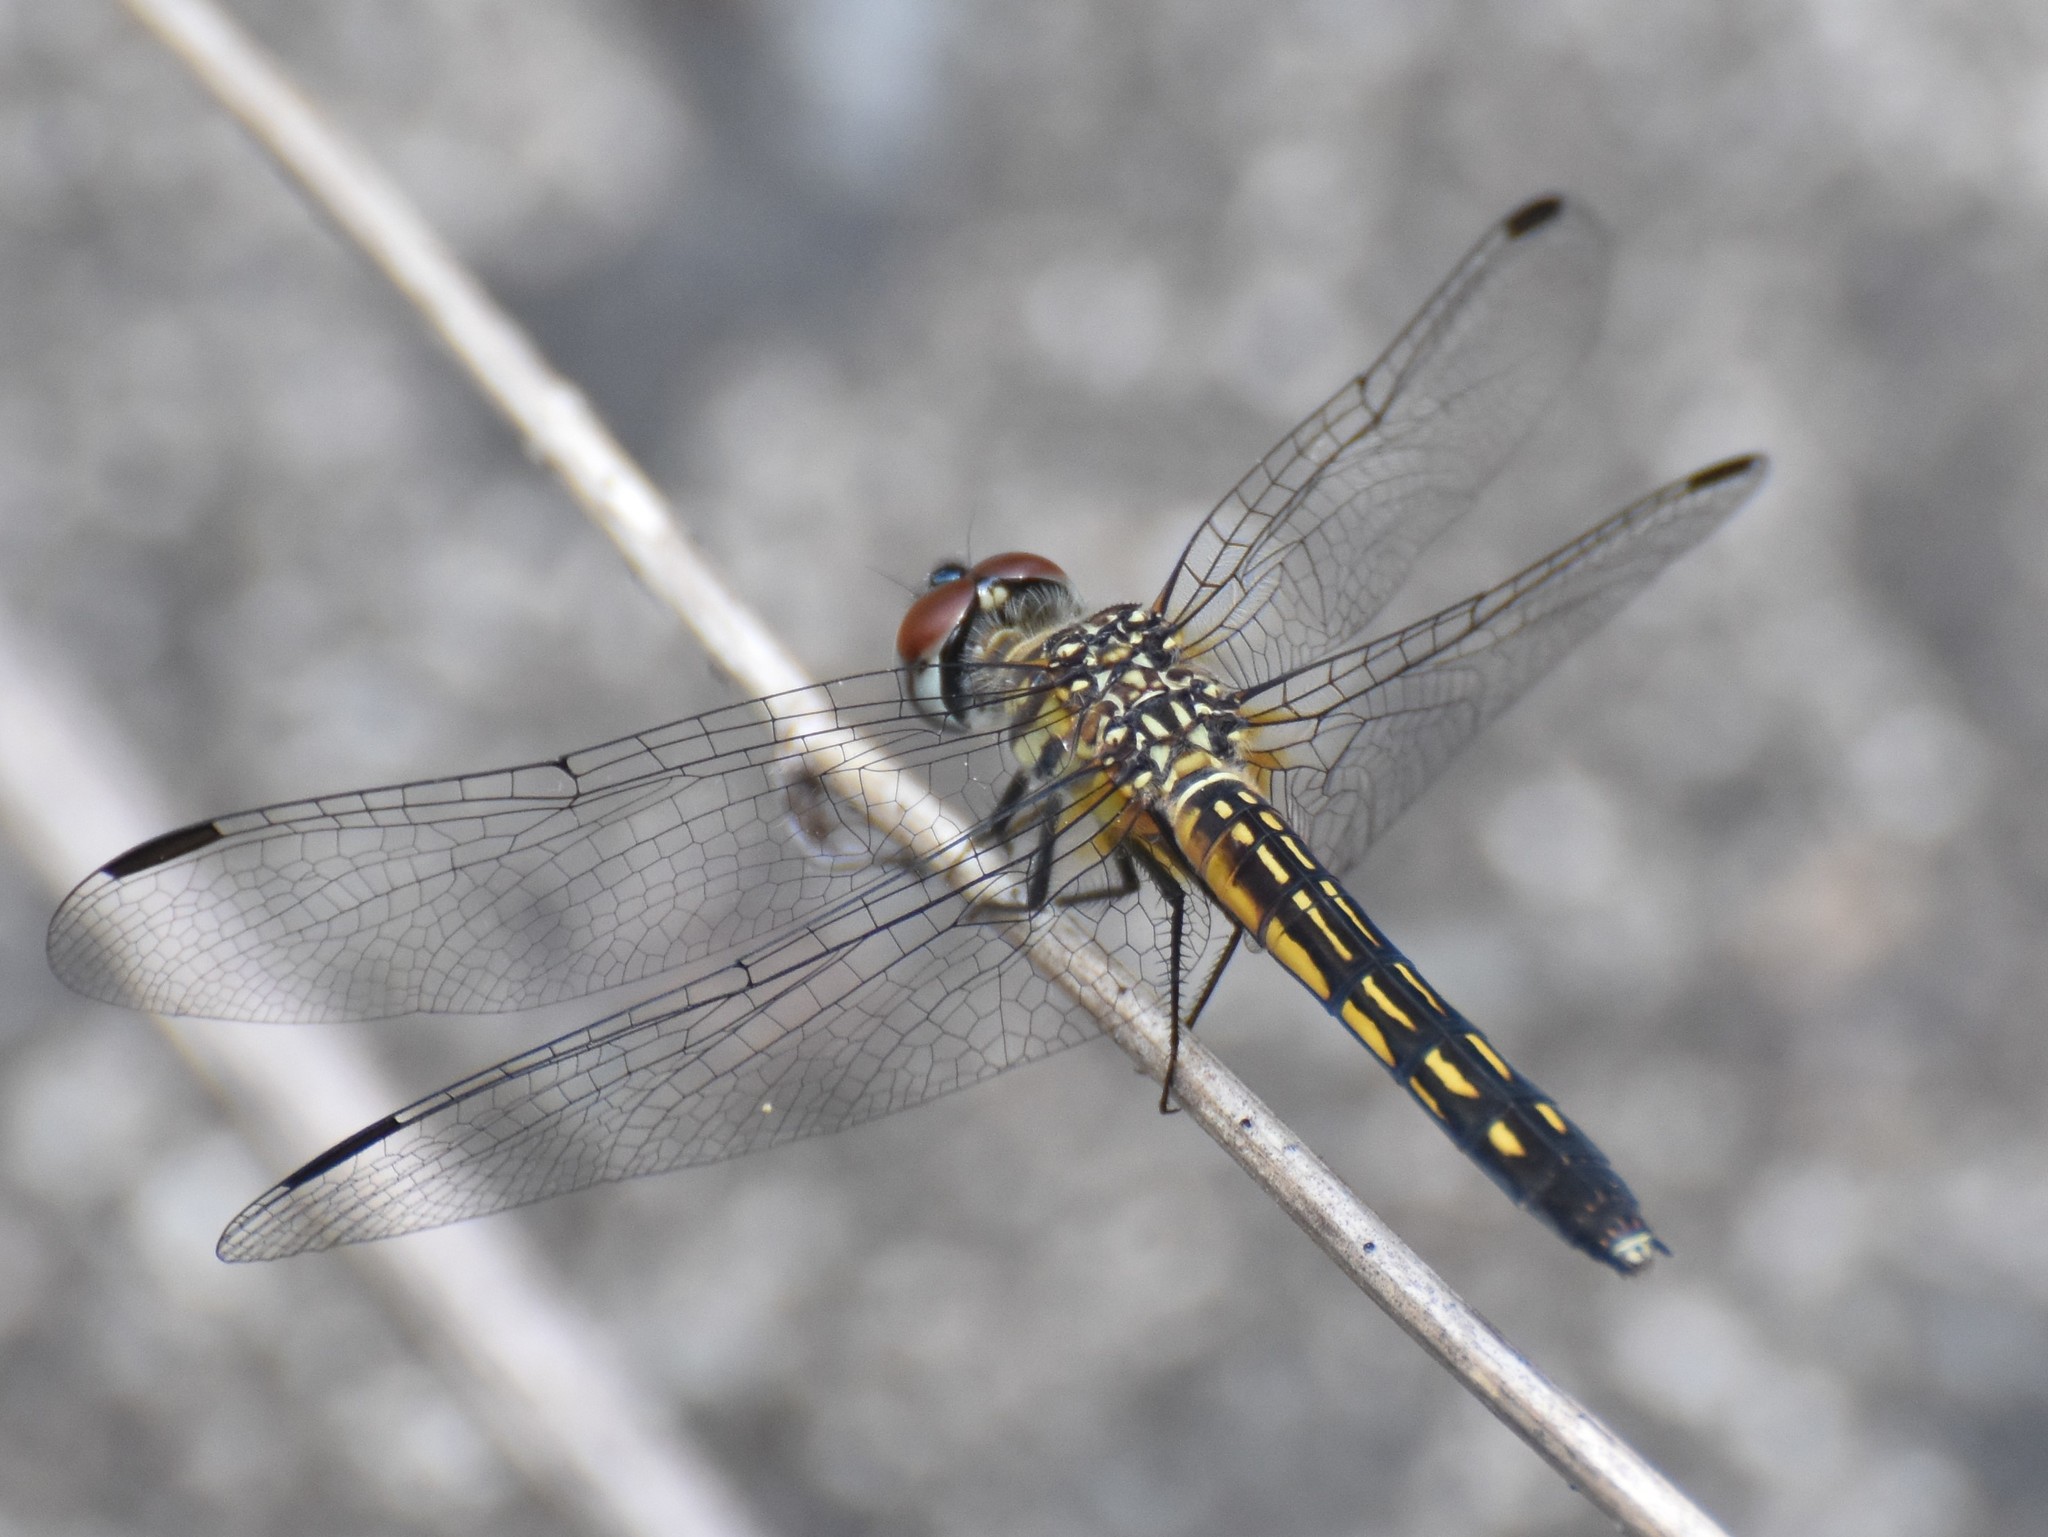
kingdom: Animalia
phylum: Arthropoda
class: Insecta
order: Odonata
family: Libellulidae
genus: Pachydiplax
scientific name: Pachydiplax longipennis
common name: Blue dasher
